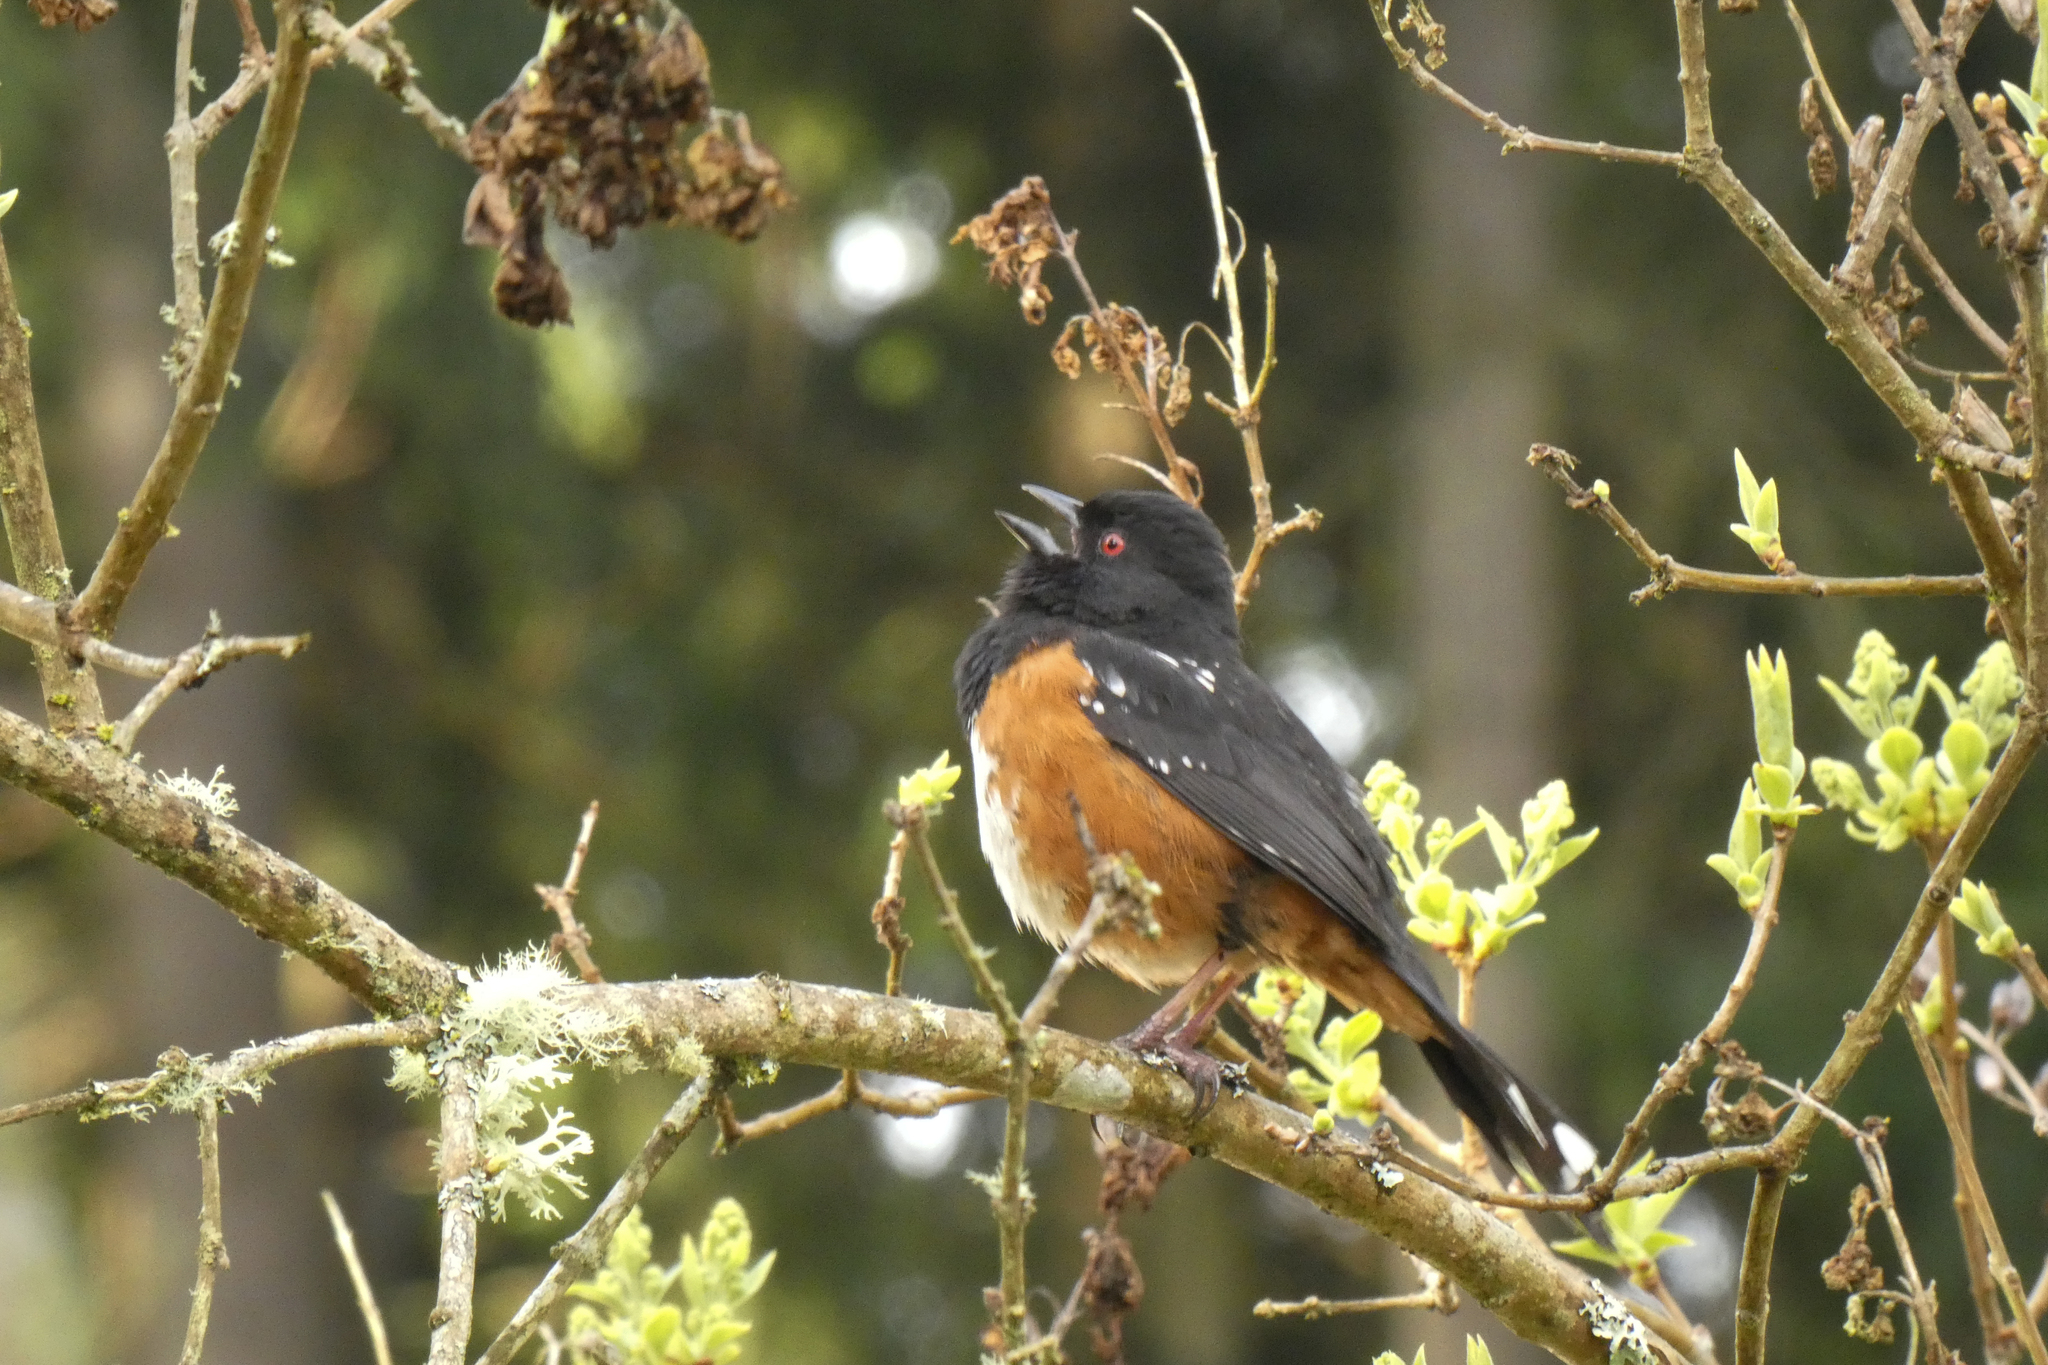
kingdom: Animalia
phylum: Chordata
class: Aves
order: Passeriformes
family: Passerellidae
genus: Pipilo
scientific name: Pipilo maculatus
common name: Spotted towhee
